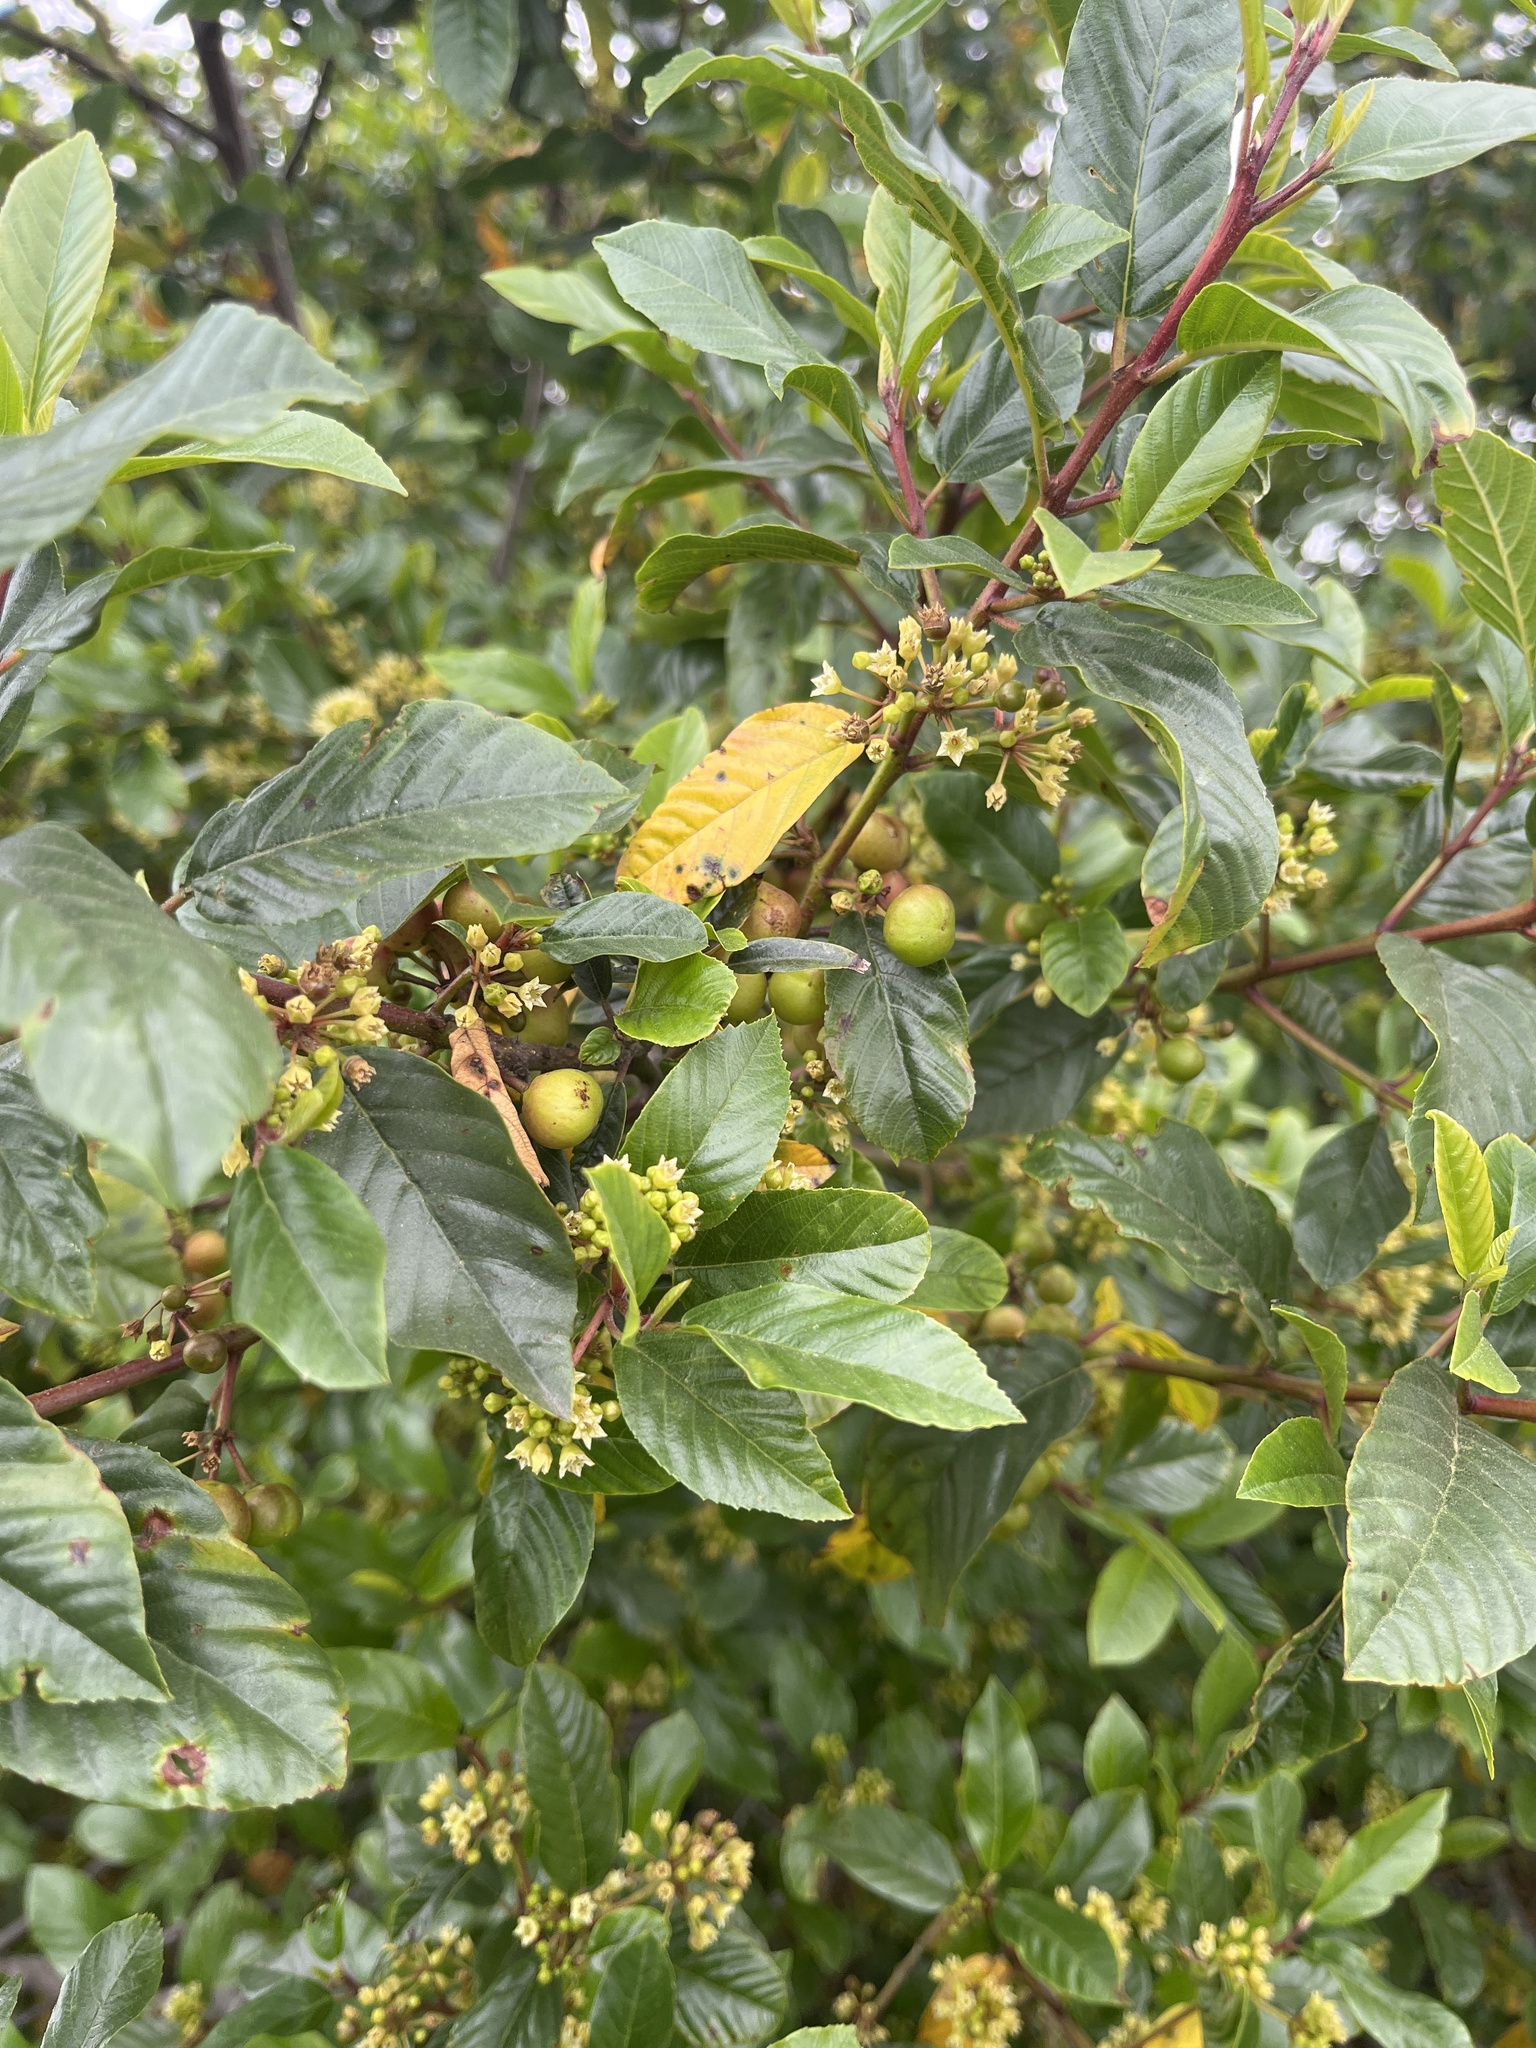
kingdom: Plantae
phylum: Tracheophyta
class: Magnoliopsida
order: Rosales
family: Rhamnaceae
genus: Frangula
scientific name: Frangula californica
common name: California buckthorn
